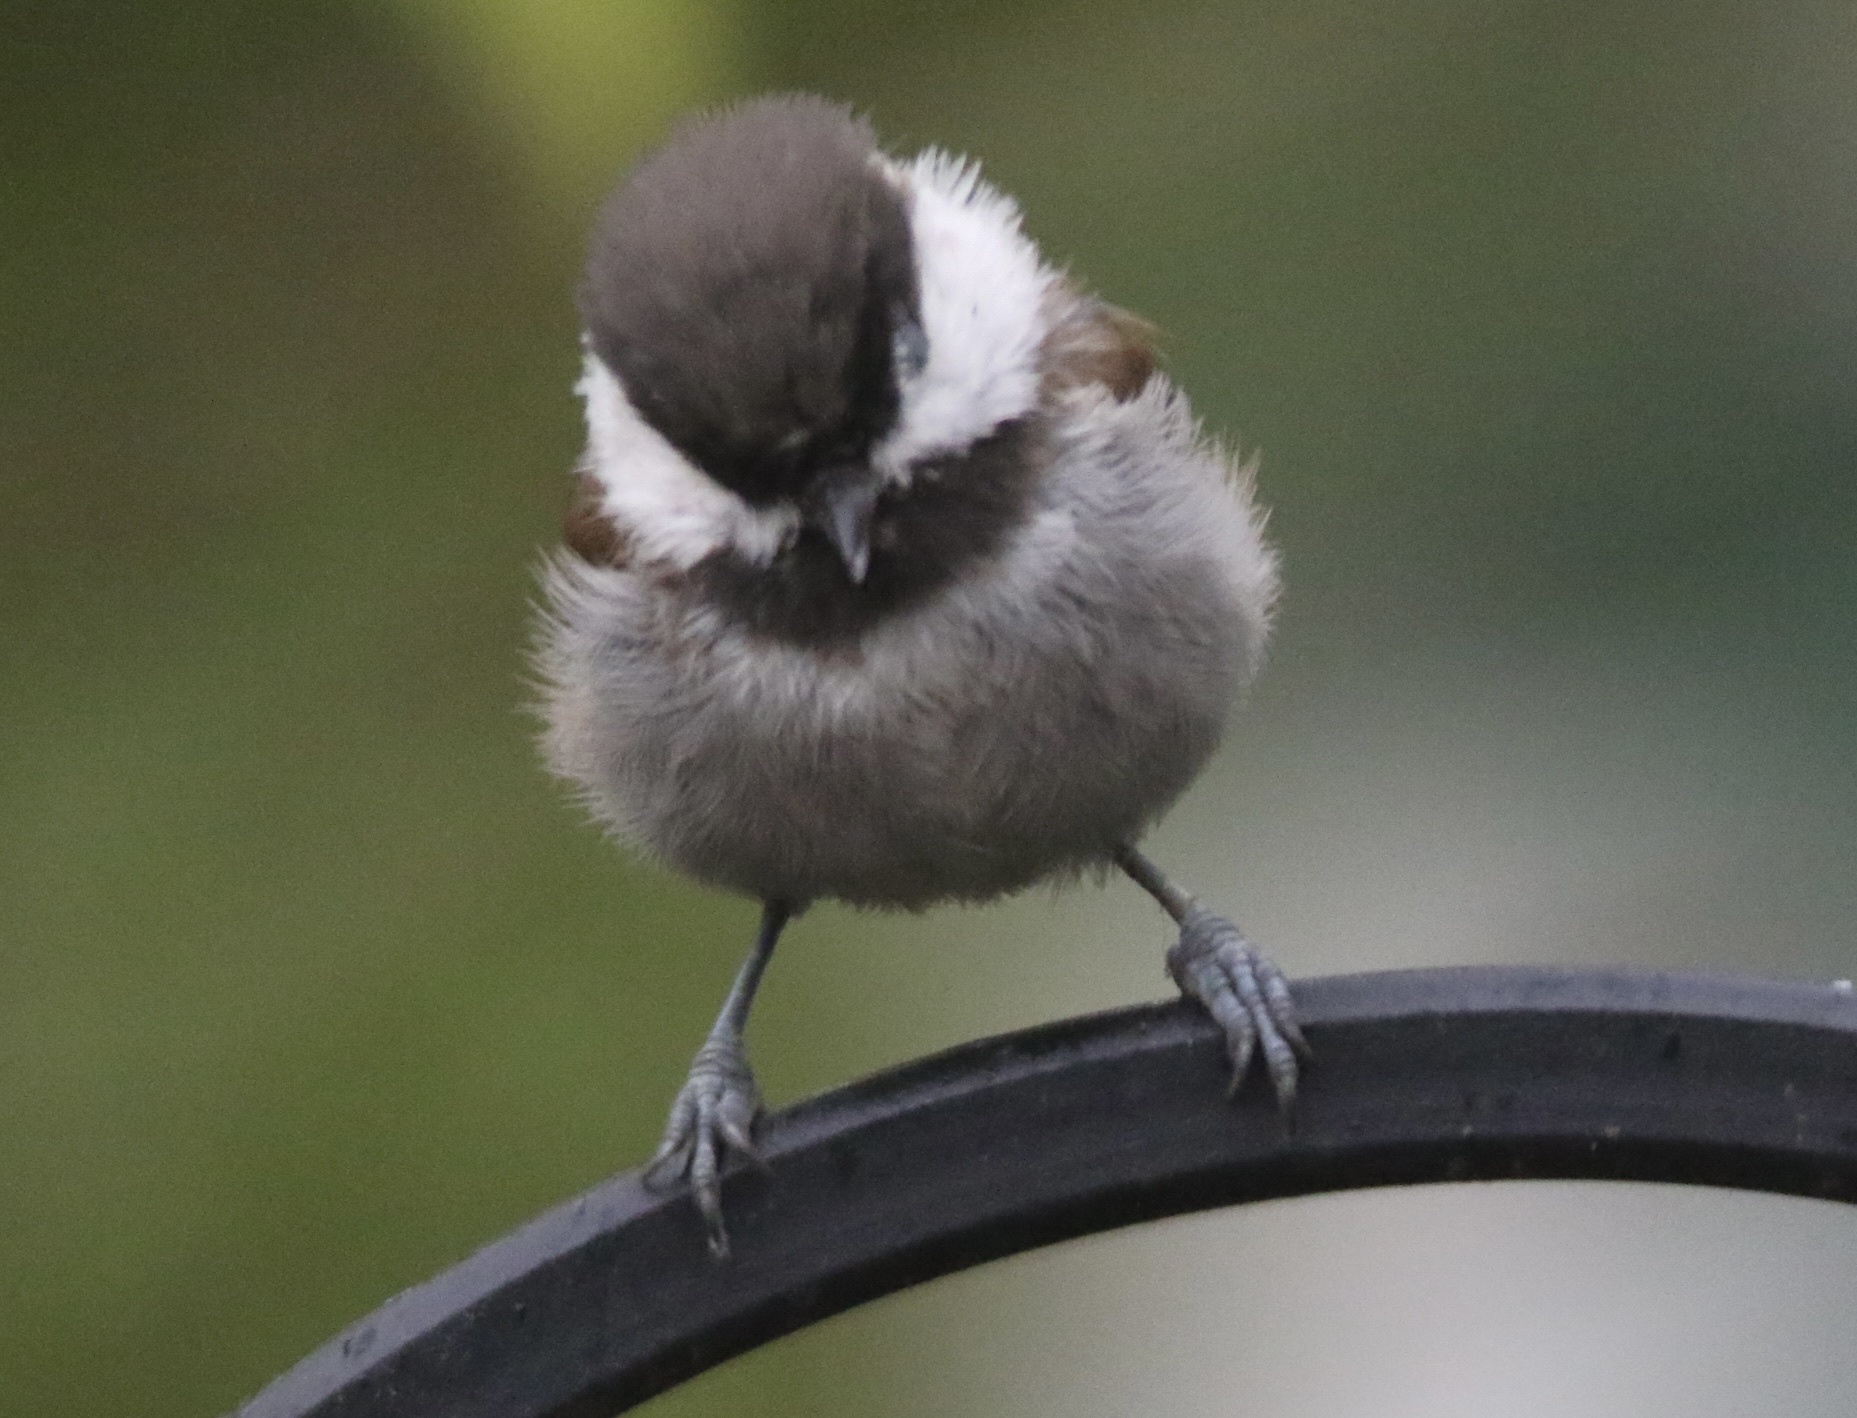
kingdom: Animalia
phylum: Chordata
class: Aves
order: Passeriformes
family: Paridae
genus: Poecile
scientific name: Poecile rufescens
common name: Chestnut-backed chickadee
